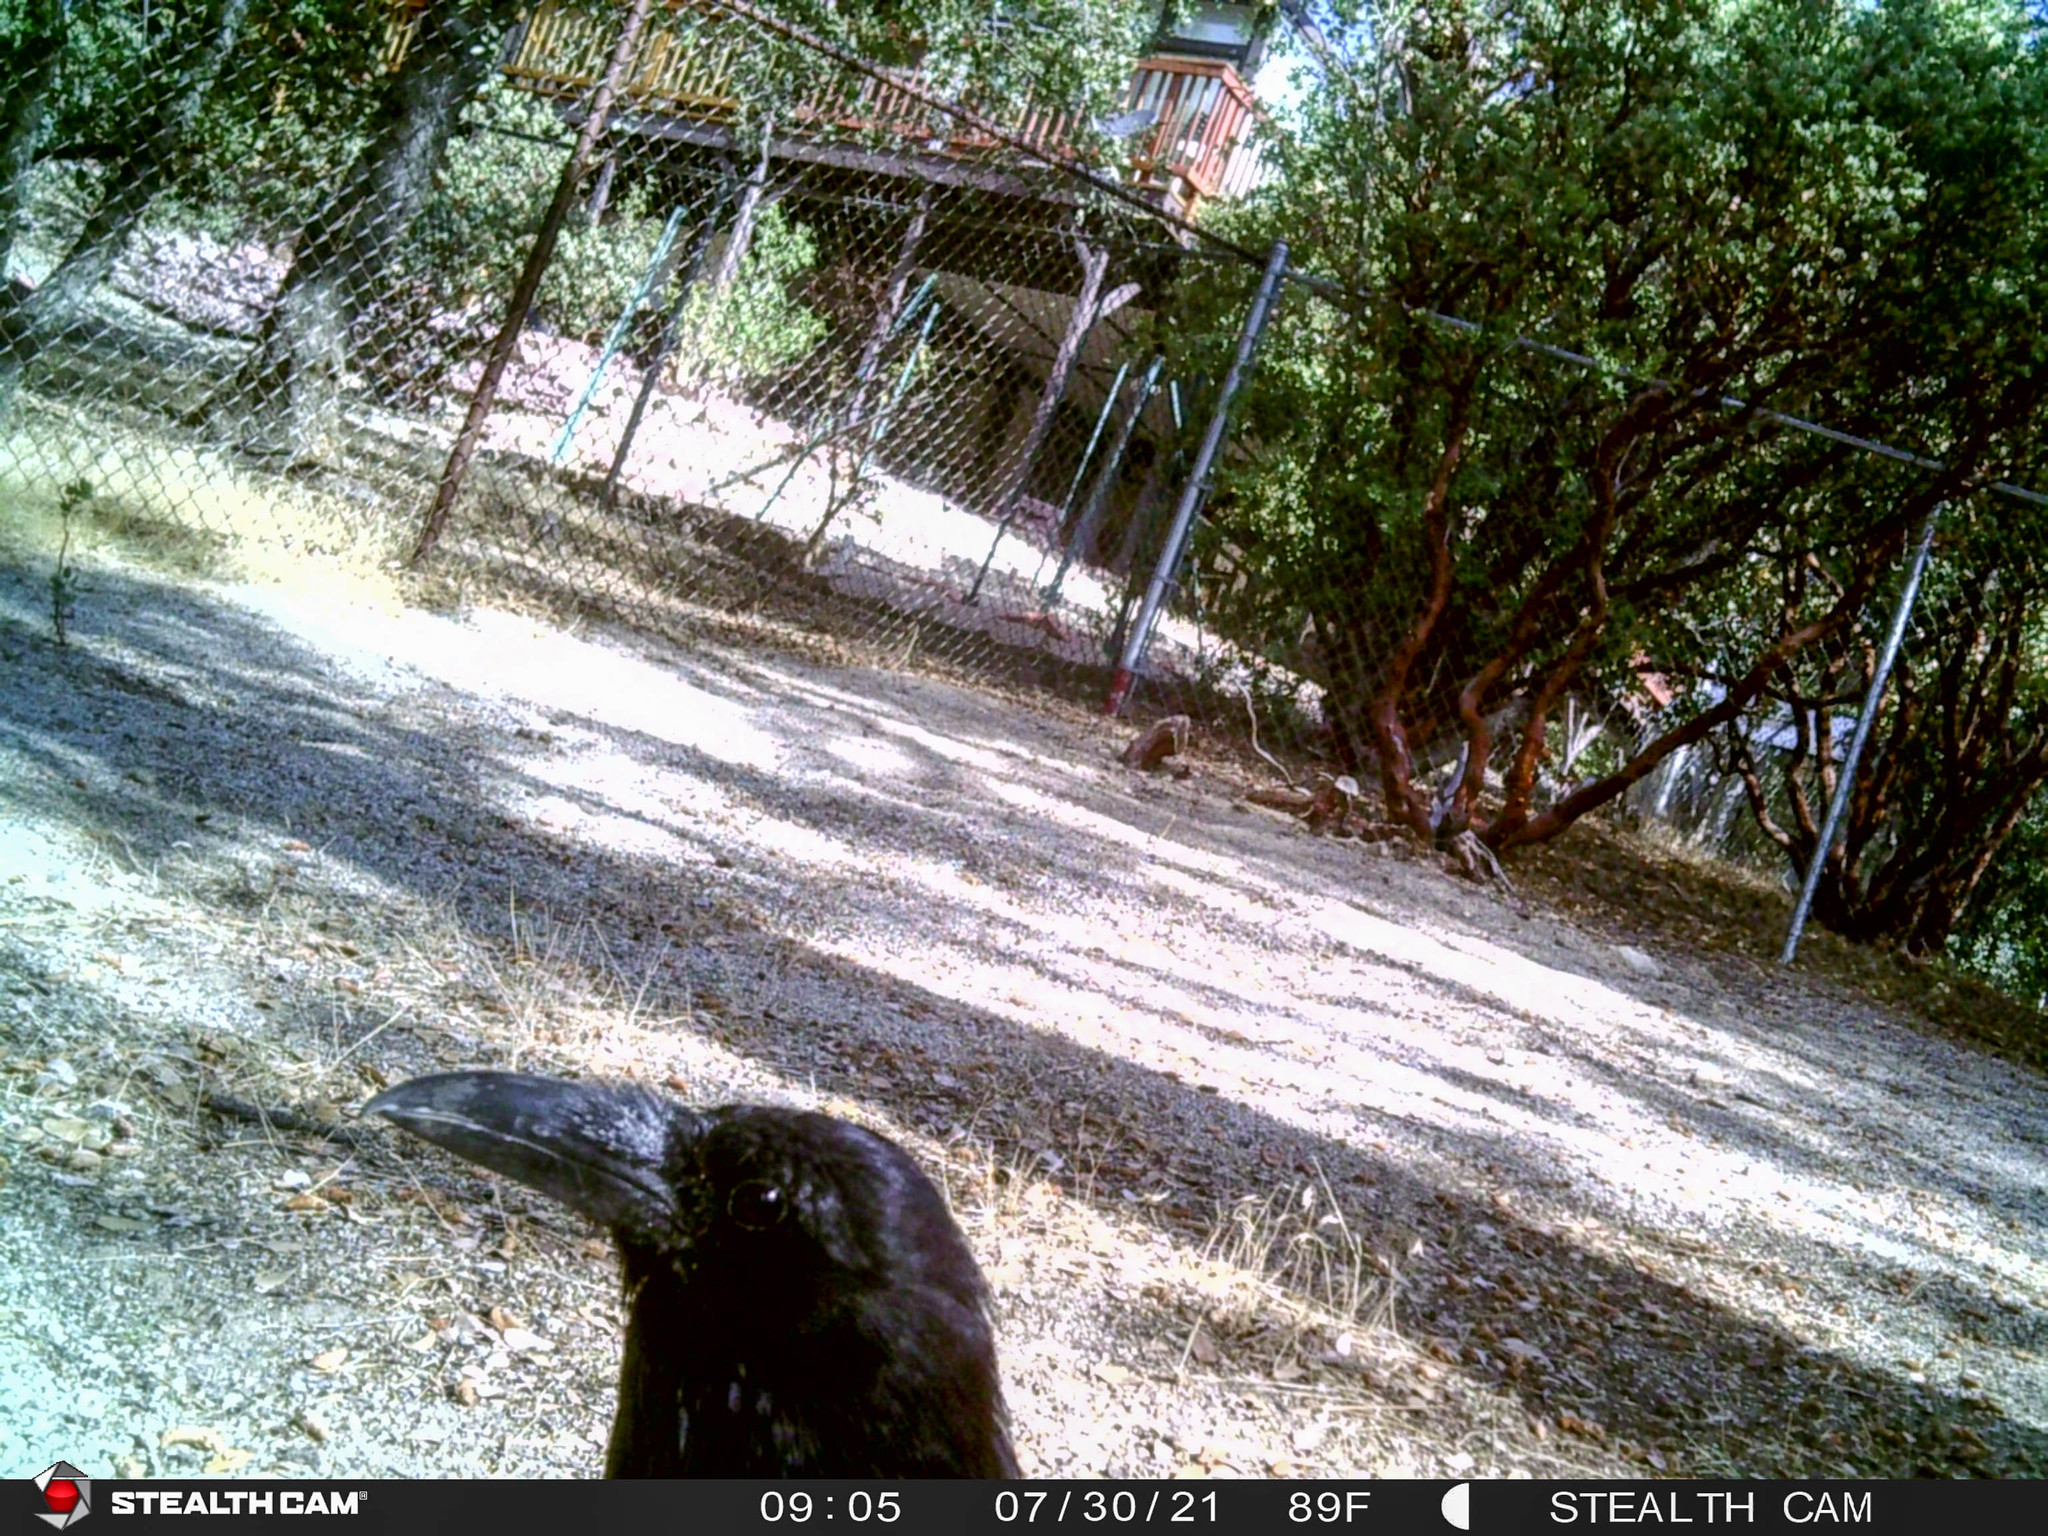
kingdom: Animalia
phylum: Chordata
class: Aves
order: Passeriformes
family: Corvidae
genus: Corvus
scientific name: Corvus corax
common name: Common raven
